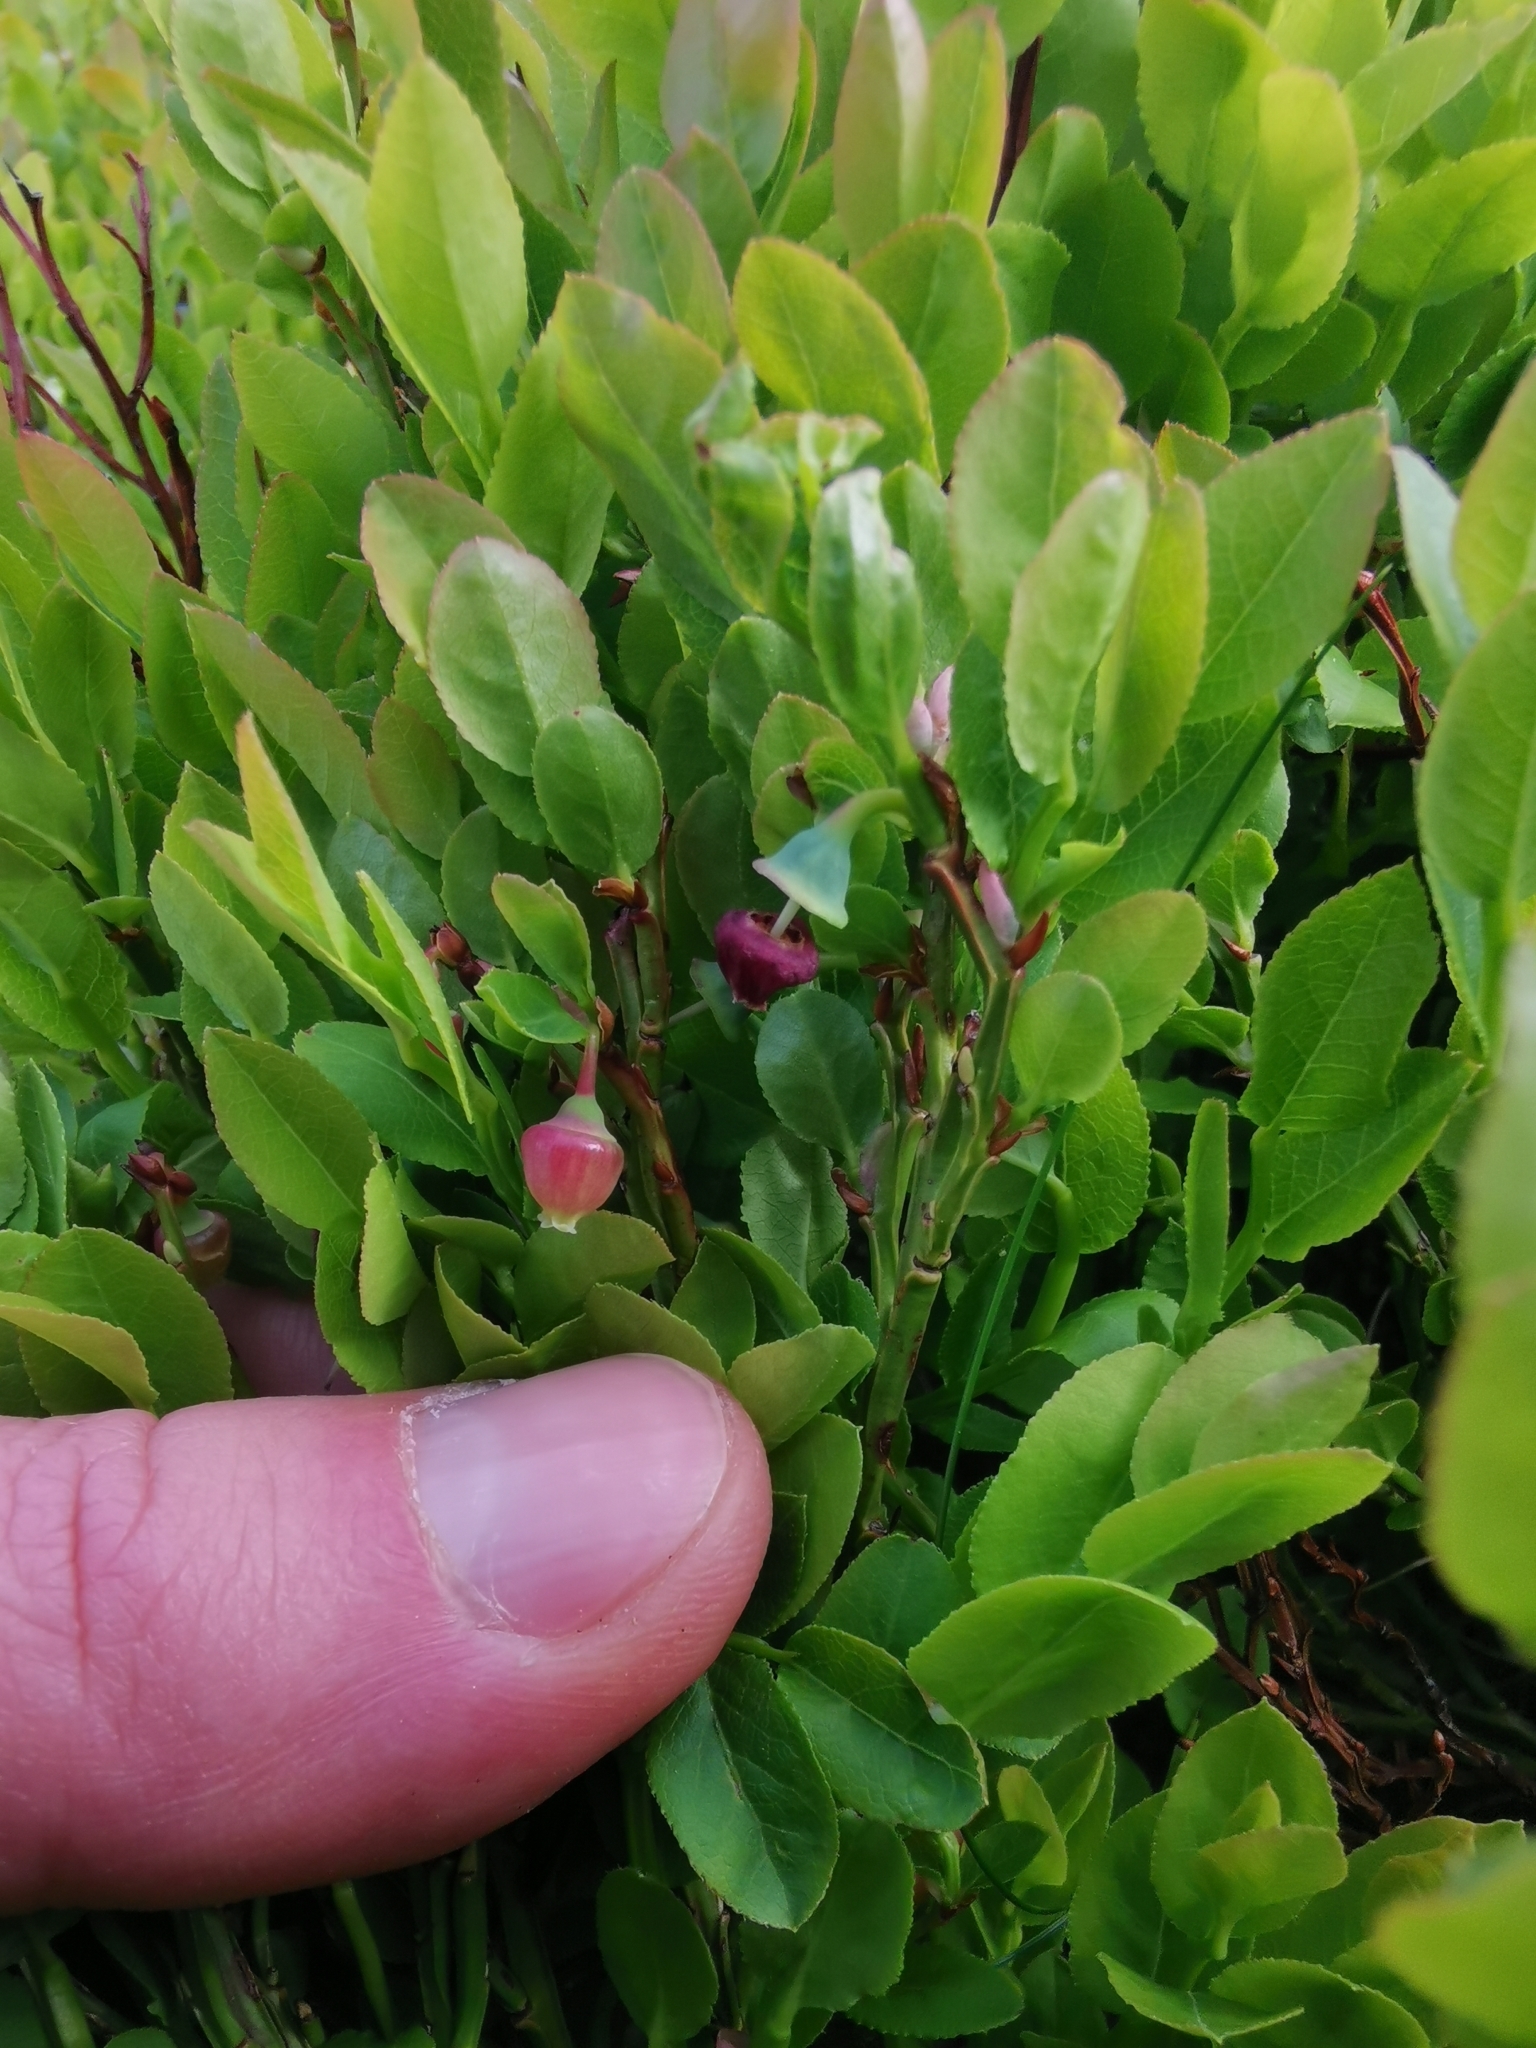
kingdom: Plantae
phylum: Tracheophyta
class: Magnoliopsida
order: Ericales
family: Ericaceae
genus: Vaccinium
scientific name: Vaccinium myrtillus
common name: Bilberry
